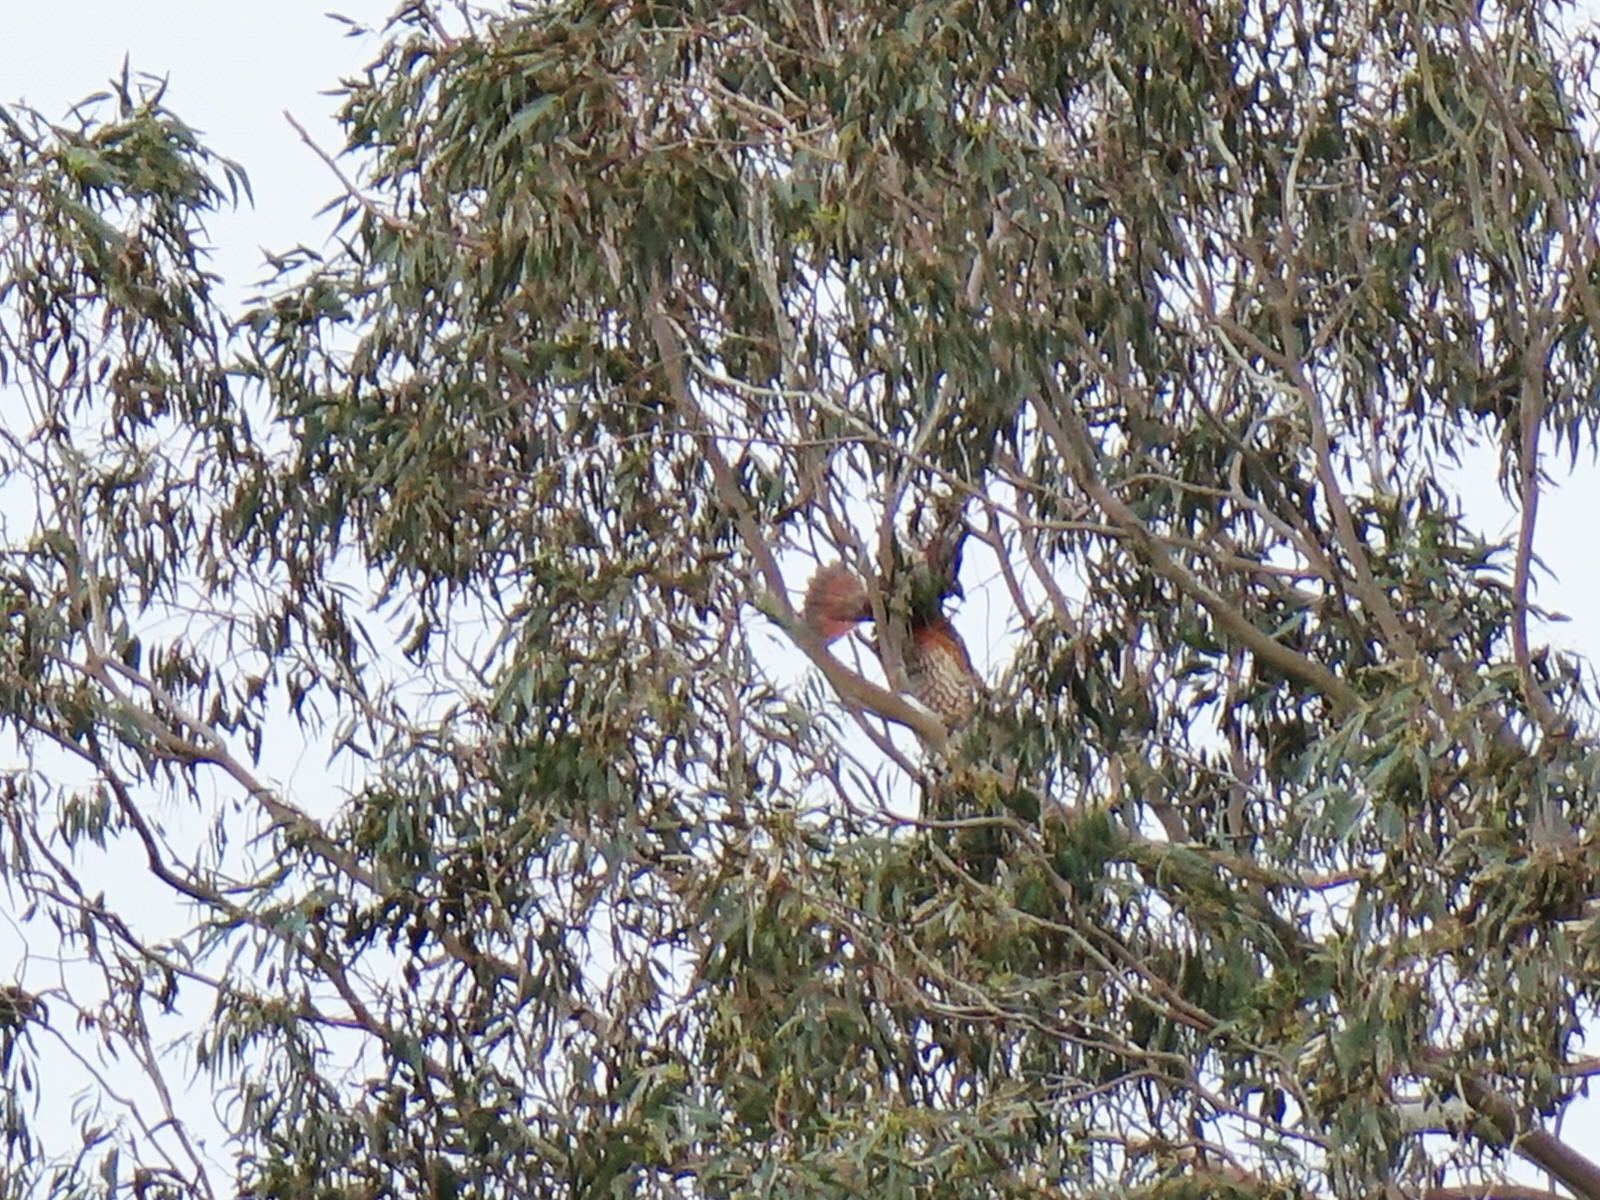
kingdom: Animalia
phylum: Chordata
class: Aves
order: Psittaciformes
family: Psittacidae
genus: Nestor
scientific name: Nestor meridionalis
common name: New zealand kaka
